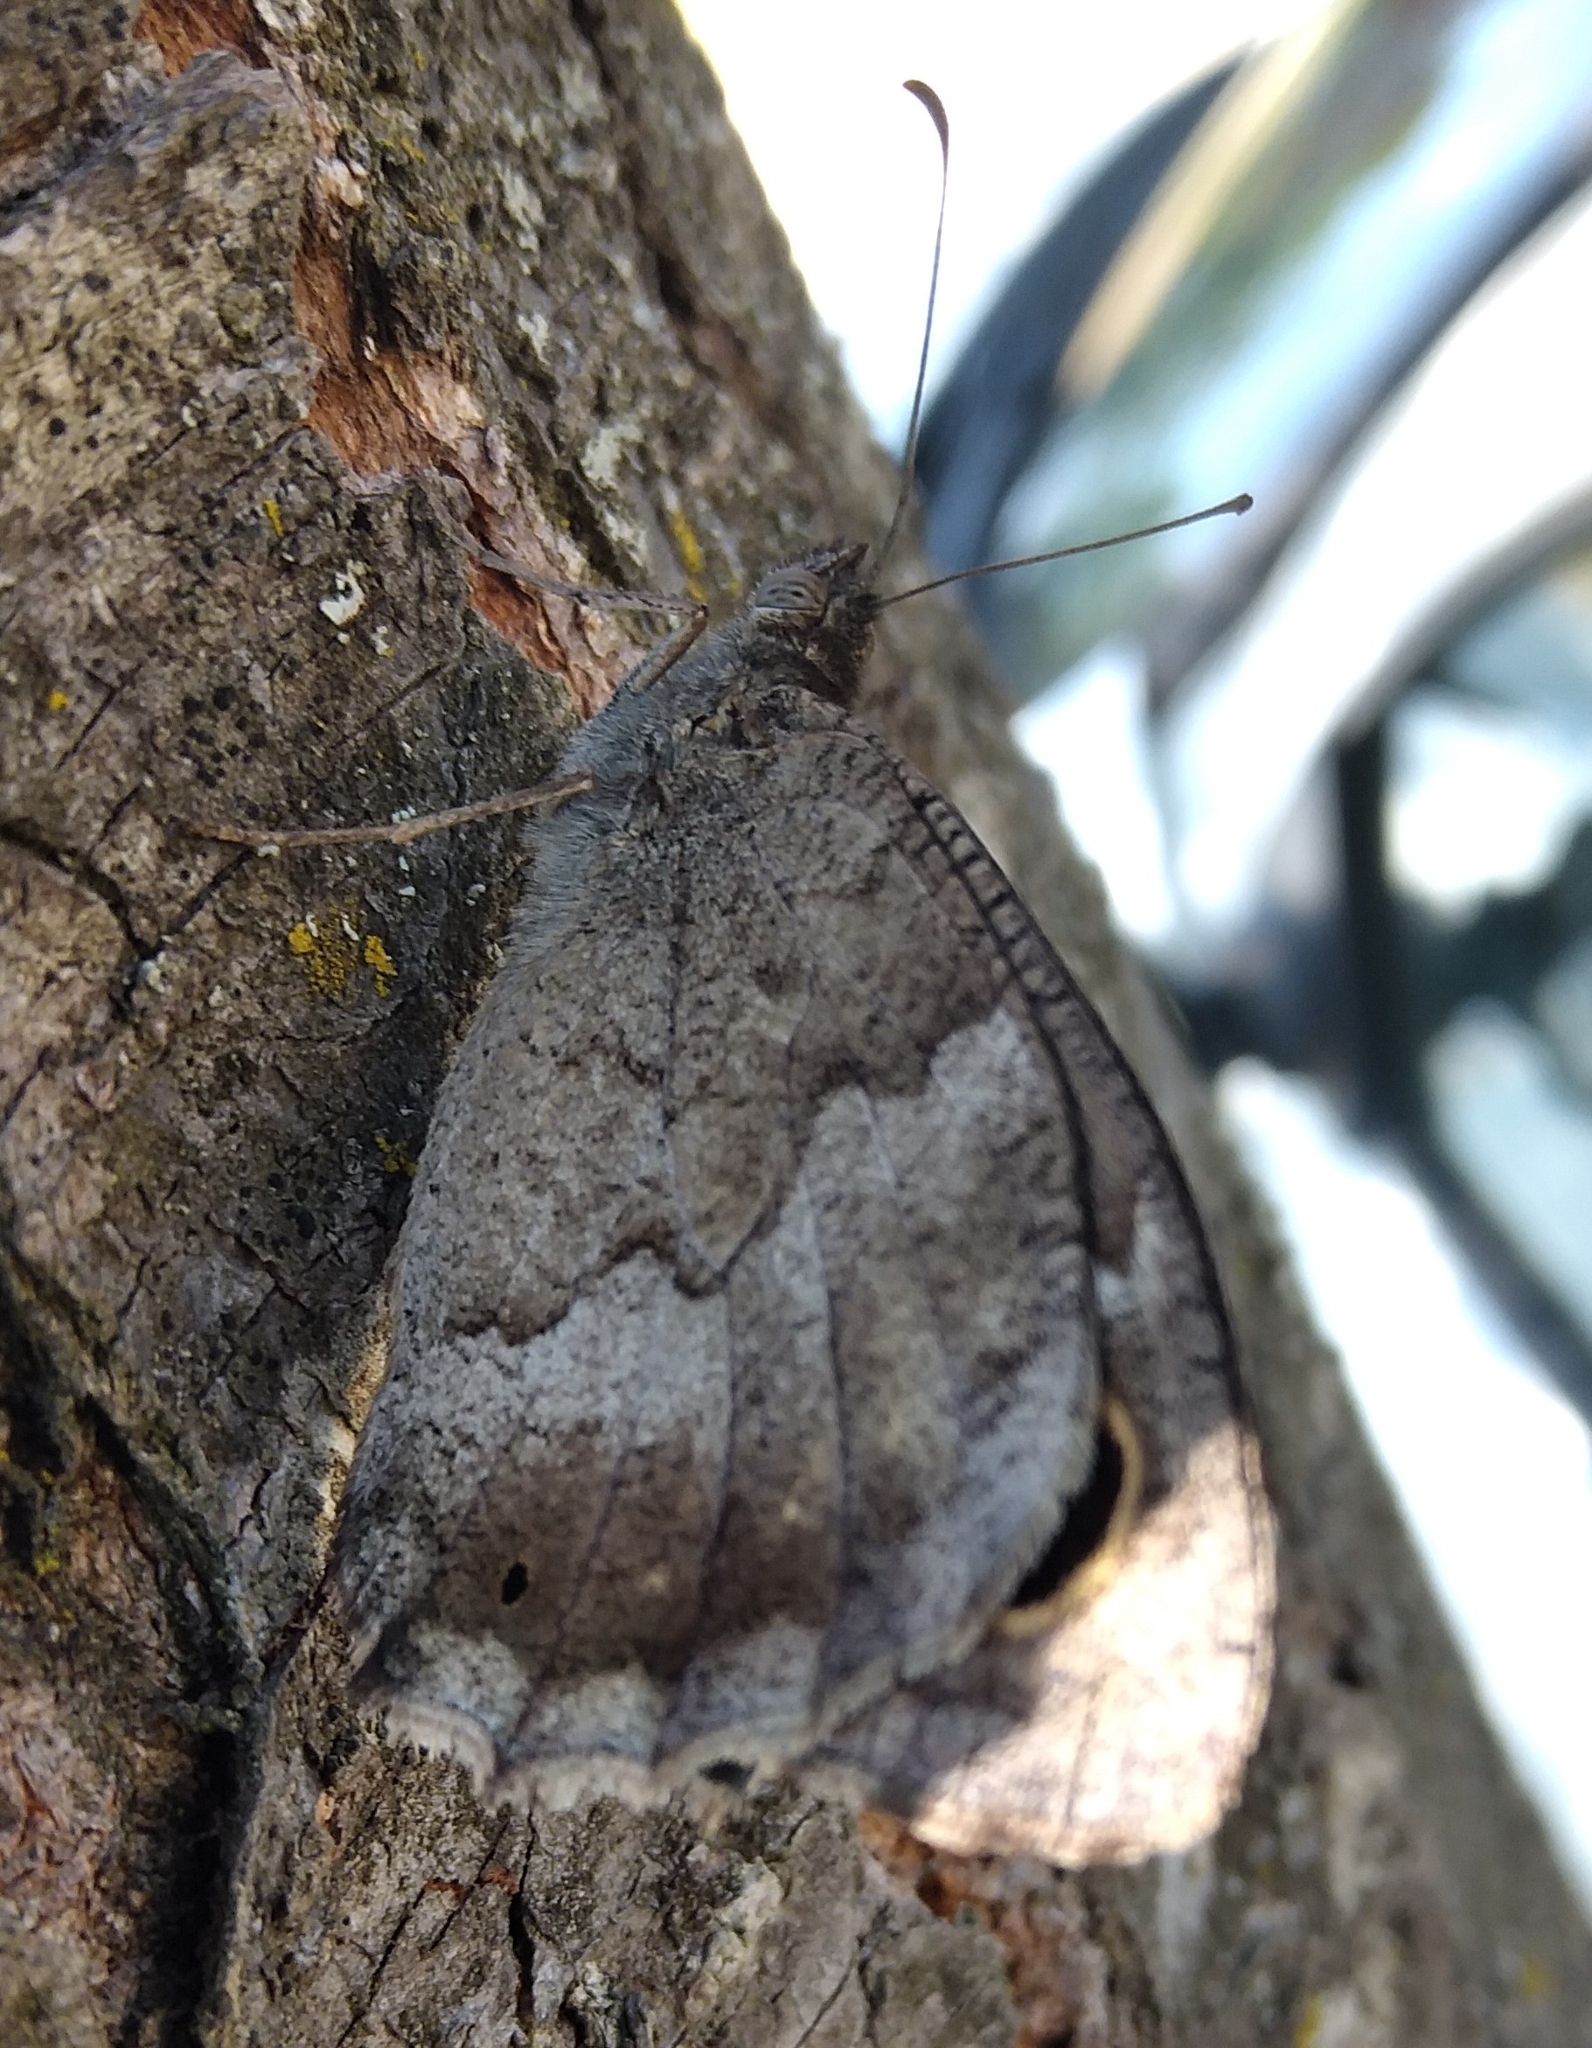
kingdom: Animalia
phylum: Arthropoda
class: Insecta
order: Lepidoptera
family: Nymphalidae
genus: Hipparchia
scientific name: Hipparchia statilinus
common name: Tree grayling
